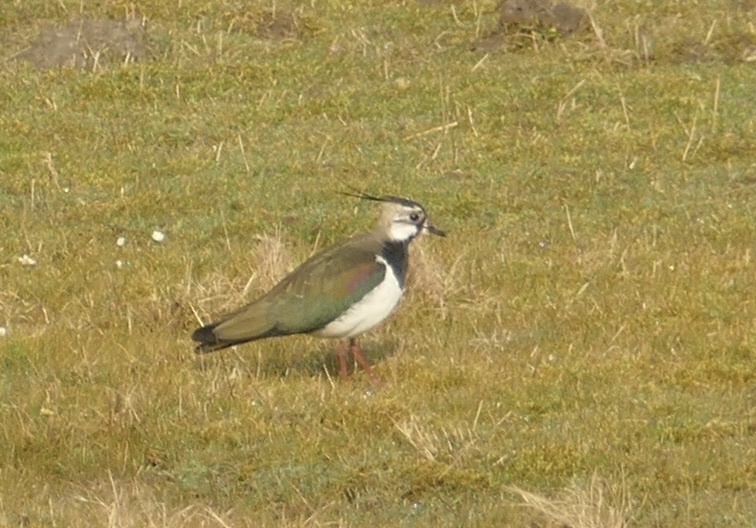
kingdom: Animalia
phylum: Chordata
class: Aves
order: Charadriiformes
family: Charadriidae
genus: Vanellus
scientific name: Vanellus vanellus
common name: Northern lapwing
